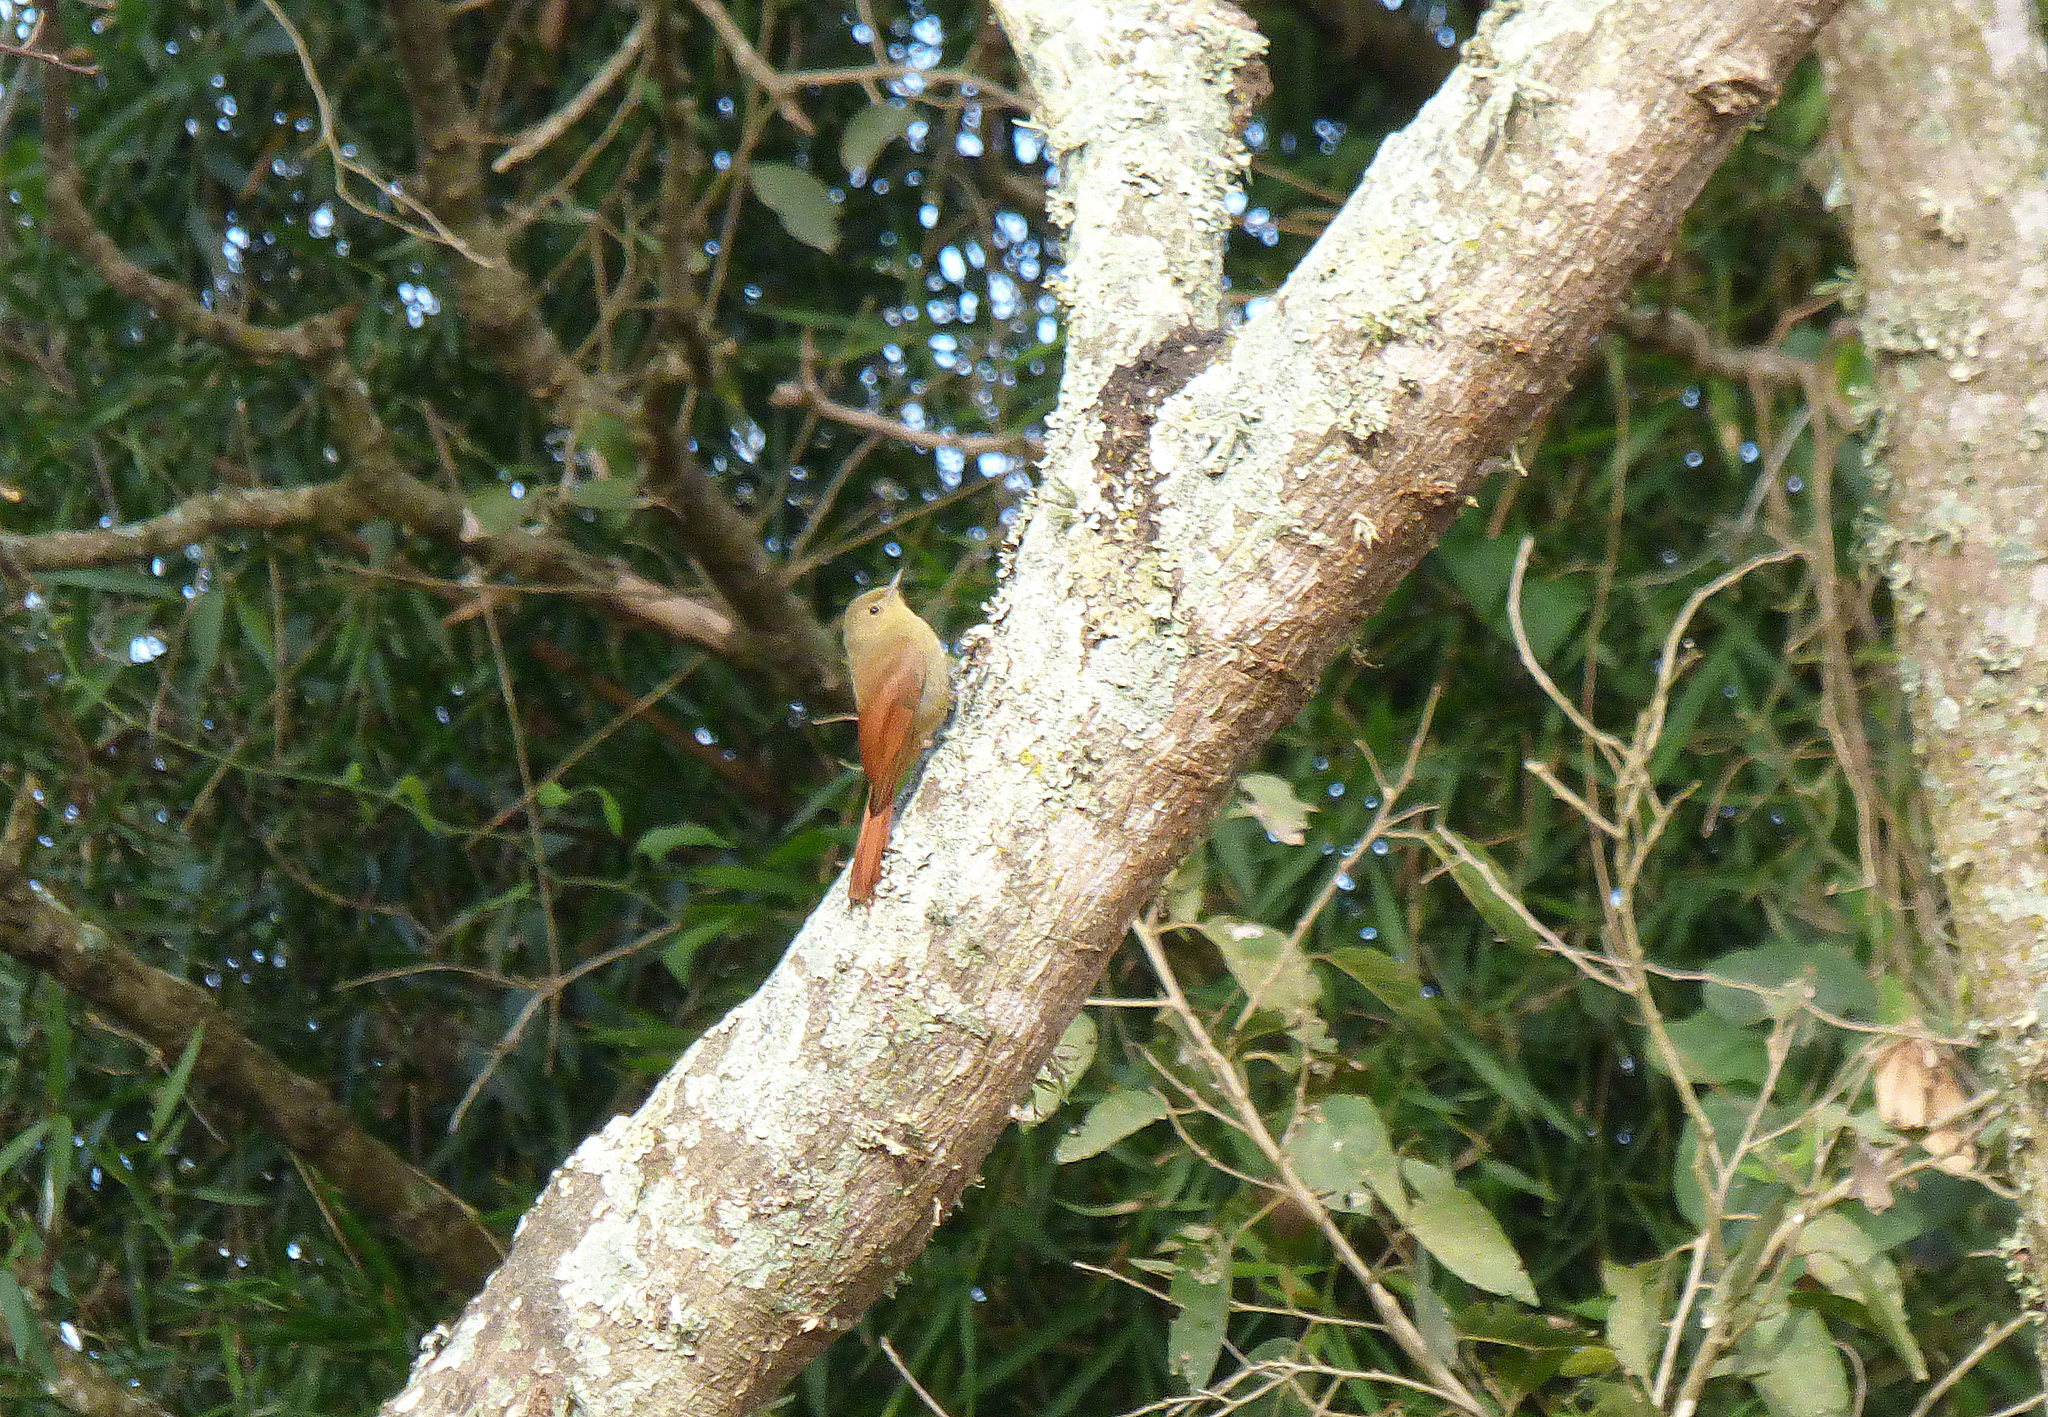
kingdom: Animalia
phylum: Chordata
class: Aves
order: Passeriformes
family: Furnariidae
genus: Sittasomus
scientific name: Sittasomus griseicapillus
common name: Olivaceous woodcreeper
